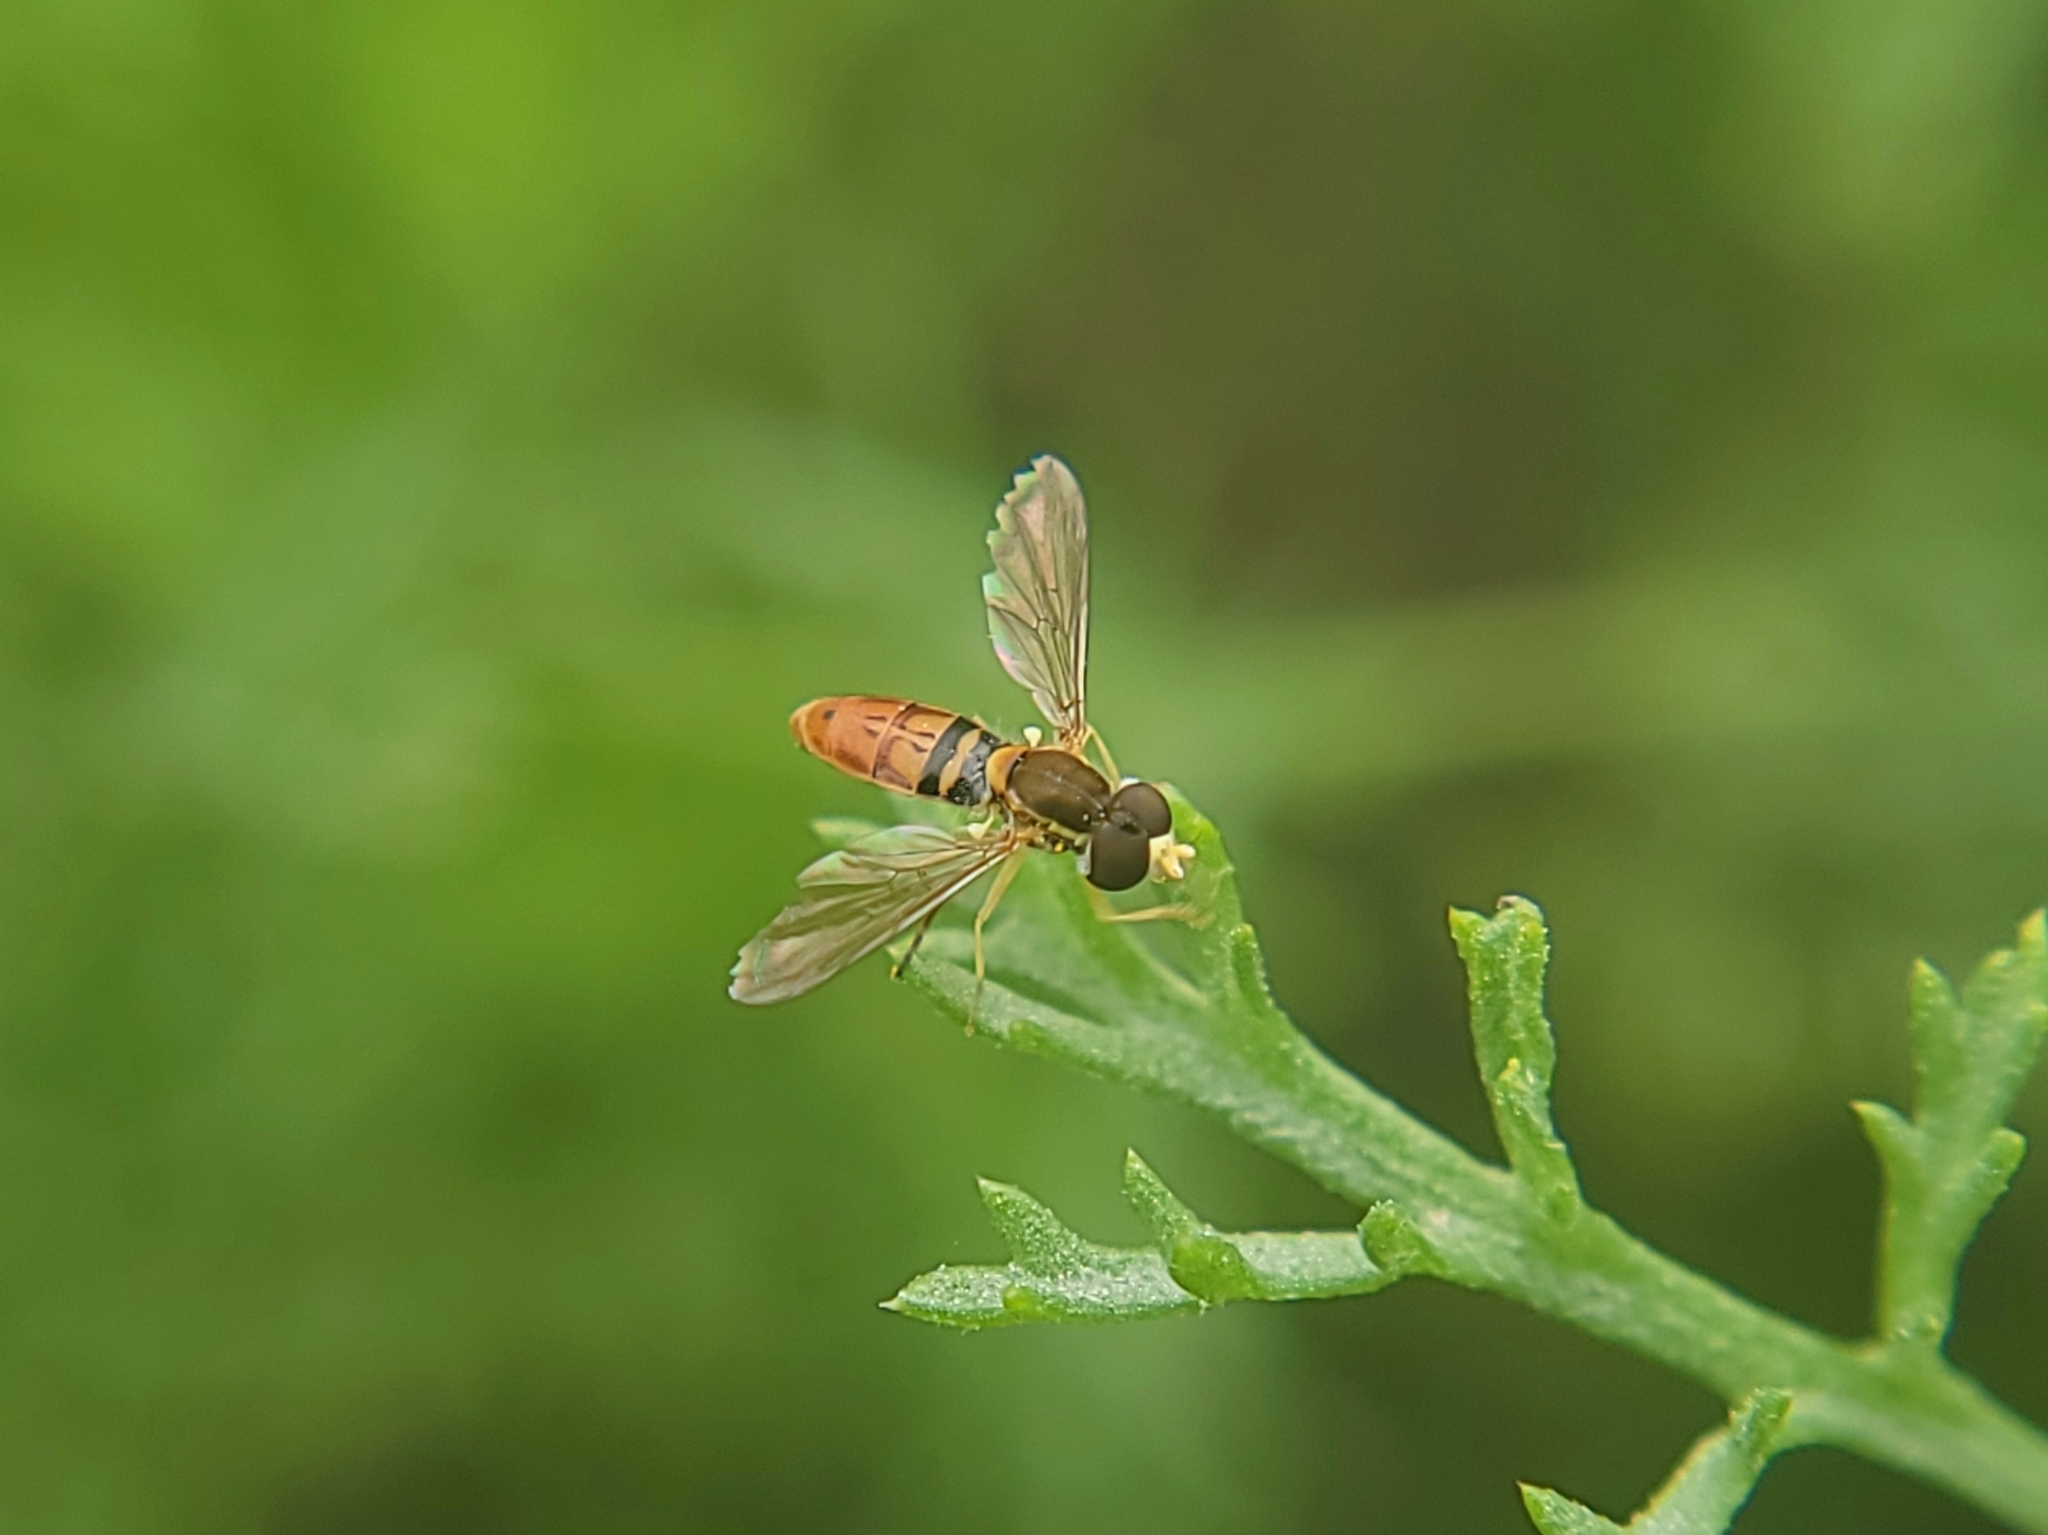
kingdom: Animalia
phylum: Arthropoda
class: Insecta
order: Diptera
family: Syrphidae
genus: Toxomerus
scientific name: Toxomerus marginatus
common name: Syrphid fly
